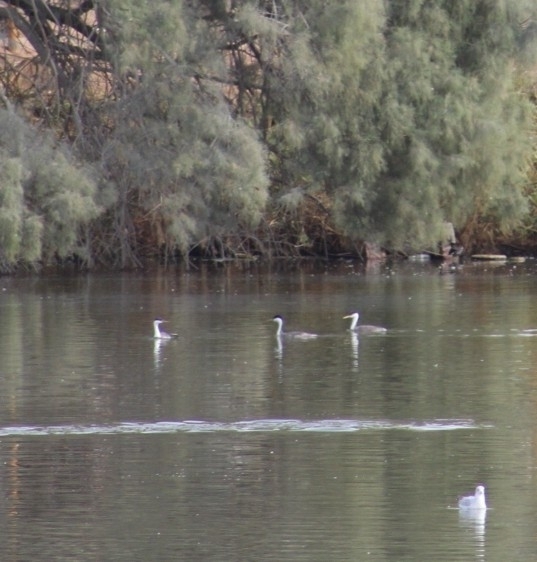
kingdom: Animalia
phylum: Chordata
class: Aves
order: Podicipediformes
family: Podicipedidae
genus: Aechmophorus
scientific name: Aechmophorus occidentalis
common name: Western grebe
